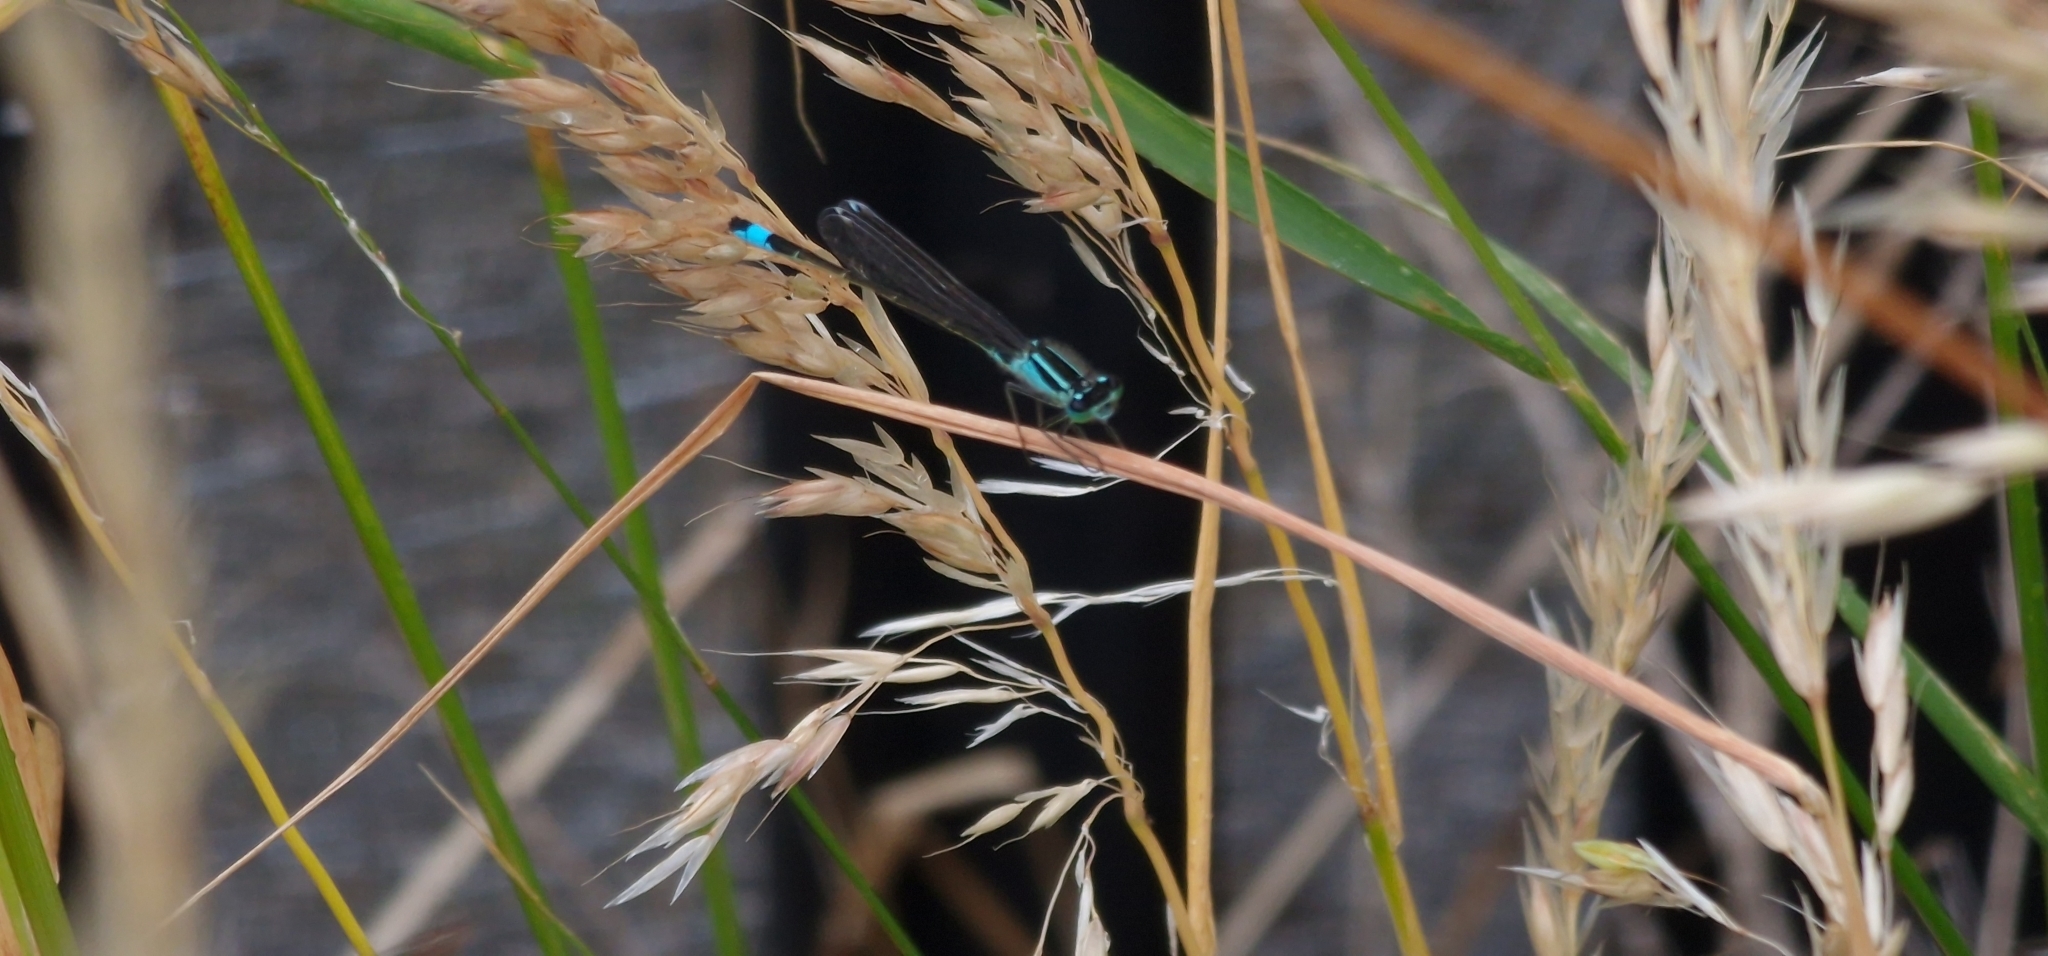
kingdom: Animalia
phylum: Arthropoda
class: Insecta
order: Odonata
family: Coenagrionidae
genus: Ischnura
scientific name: Ischnura elegans
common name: Blue-tailed damselfly
